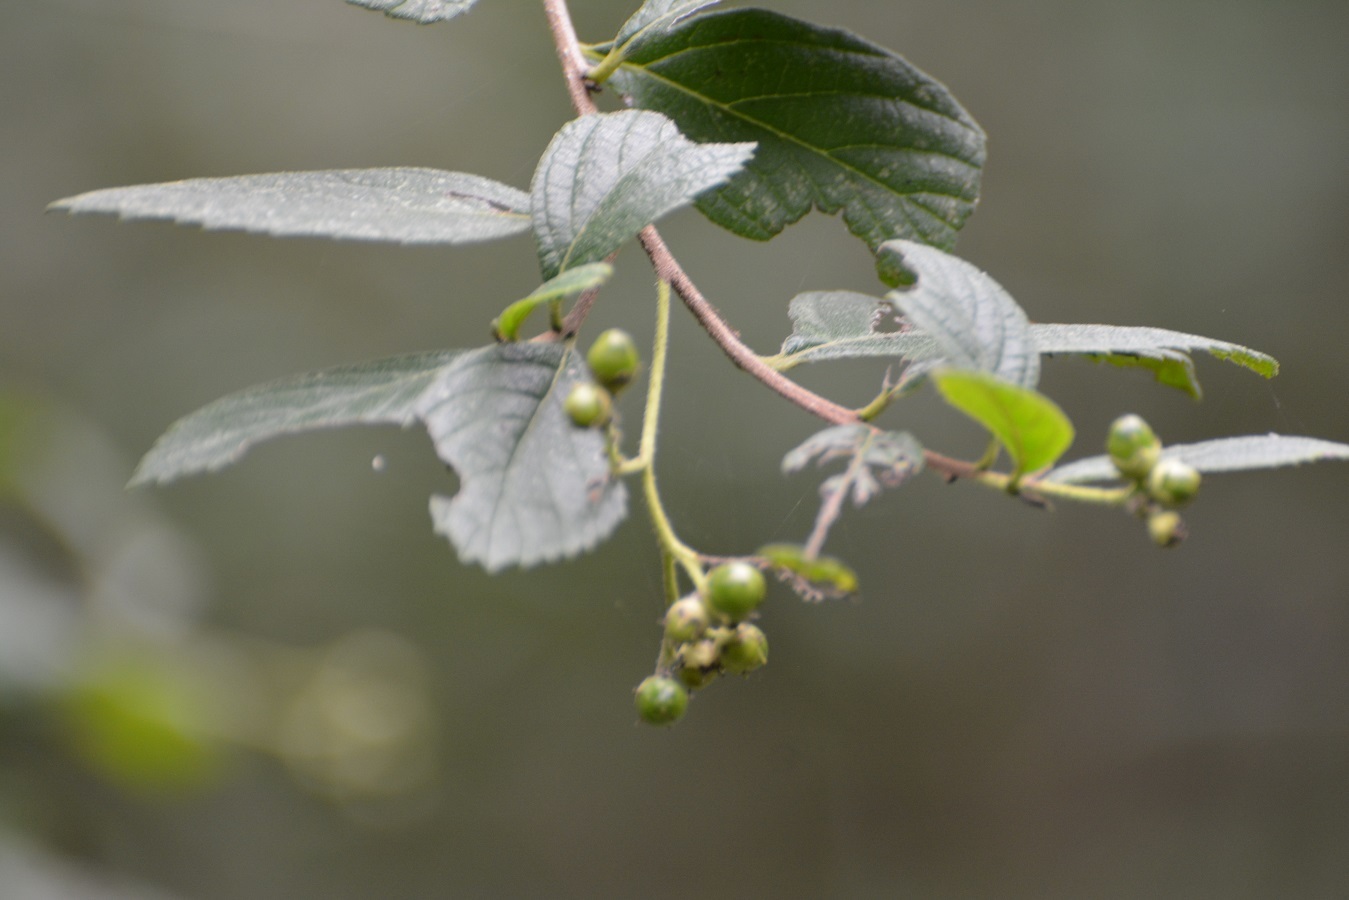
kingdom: Plantae
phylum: Tracheophyta
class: Magnoliopsida
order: Boraginales
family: Cordiaceae
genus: Varronia
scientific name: Varronia foliosa
